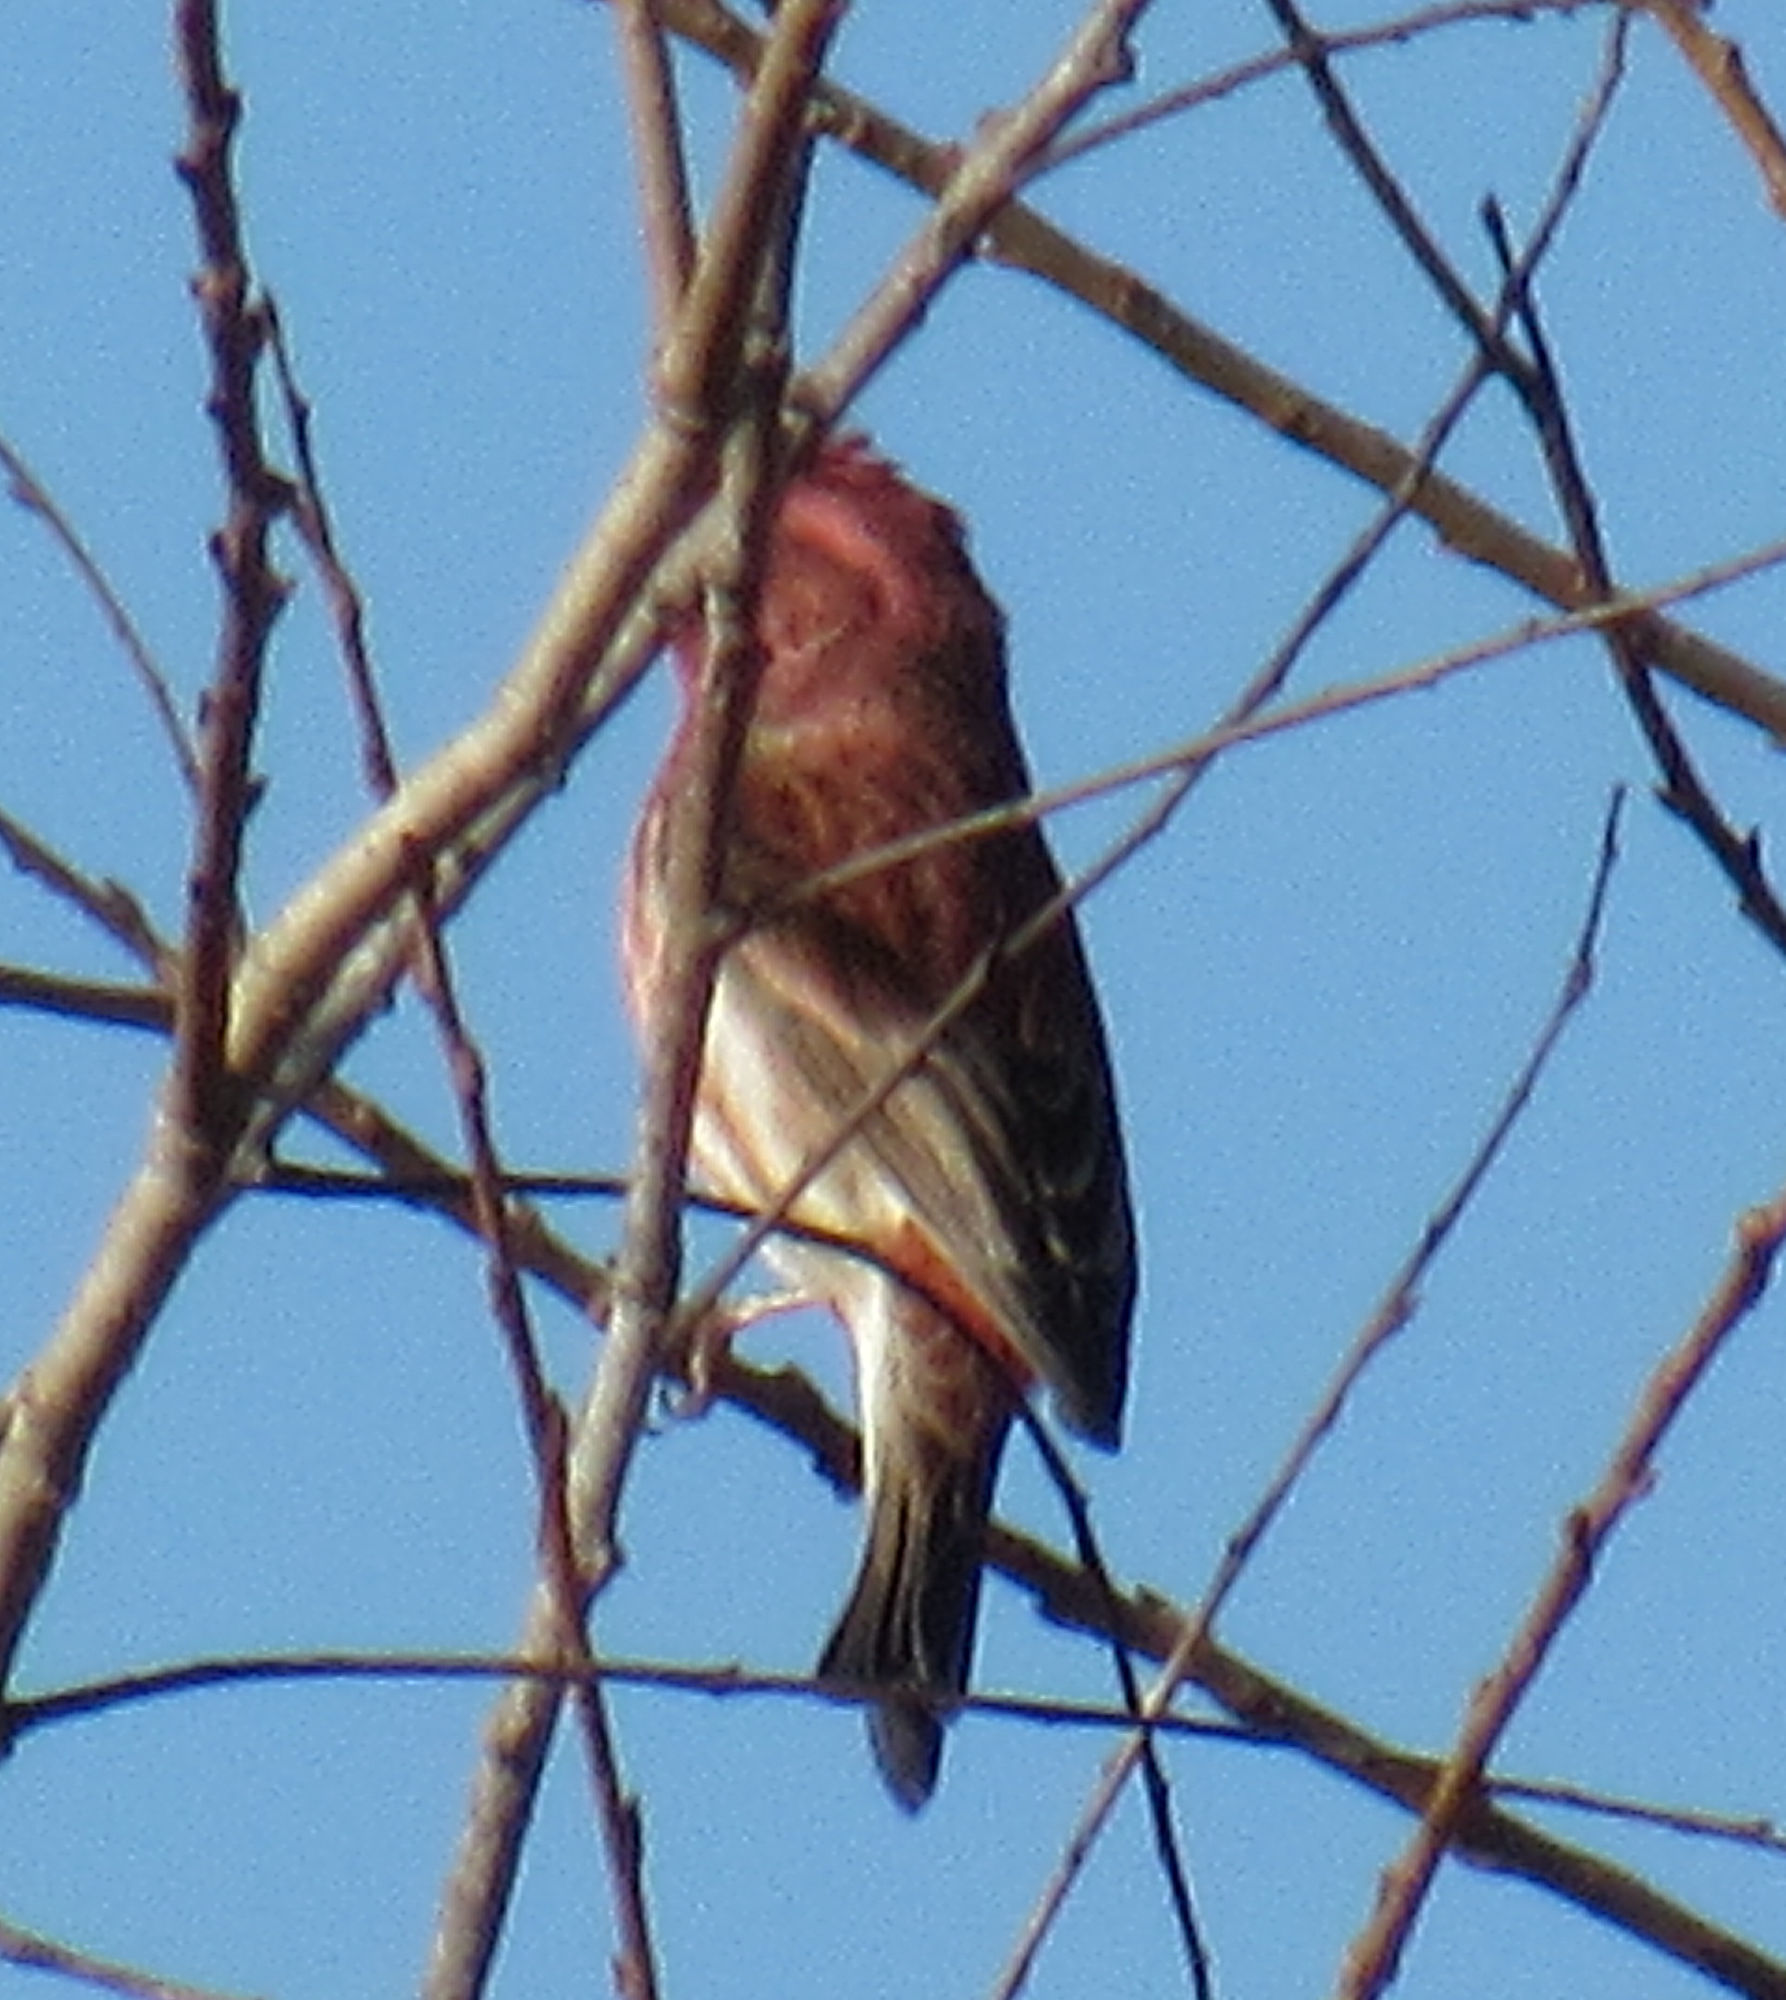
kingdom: Animalia
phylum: Chordata
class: Aves
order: Passeriformes
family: Fringillidae
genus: Haemorhous
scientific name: Haemorhous purpureus
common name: Purple finch
